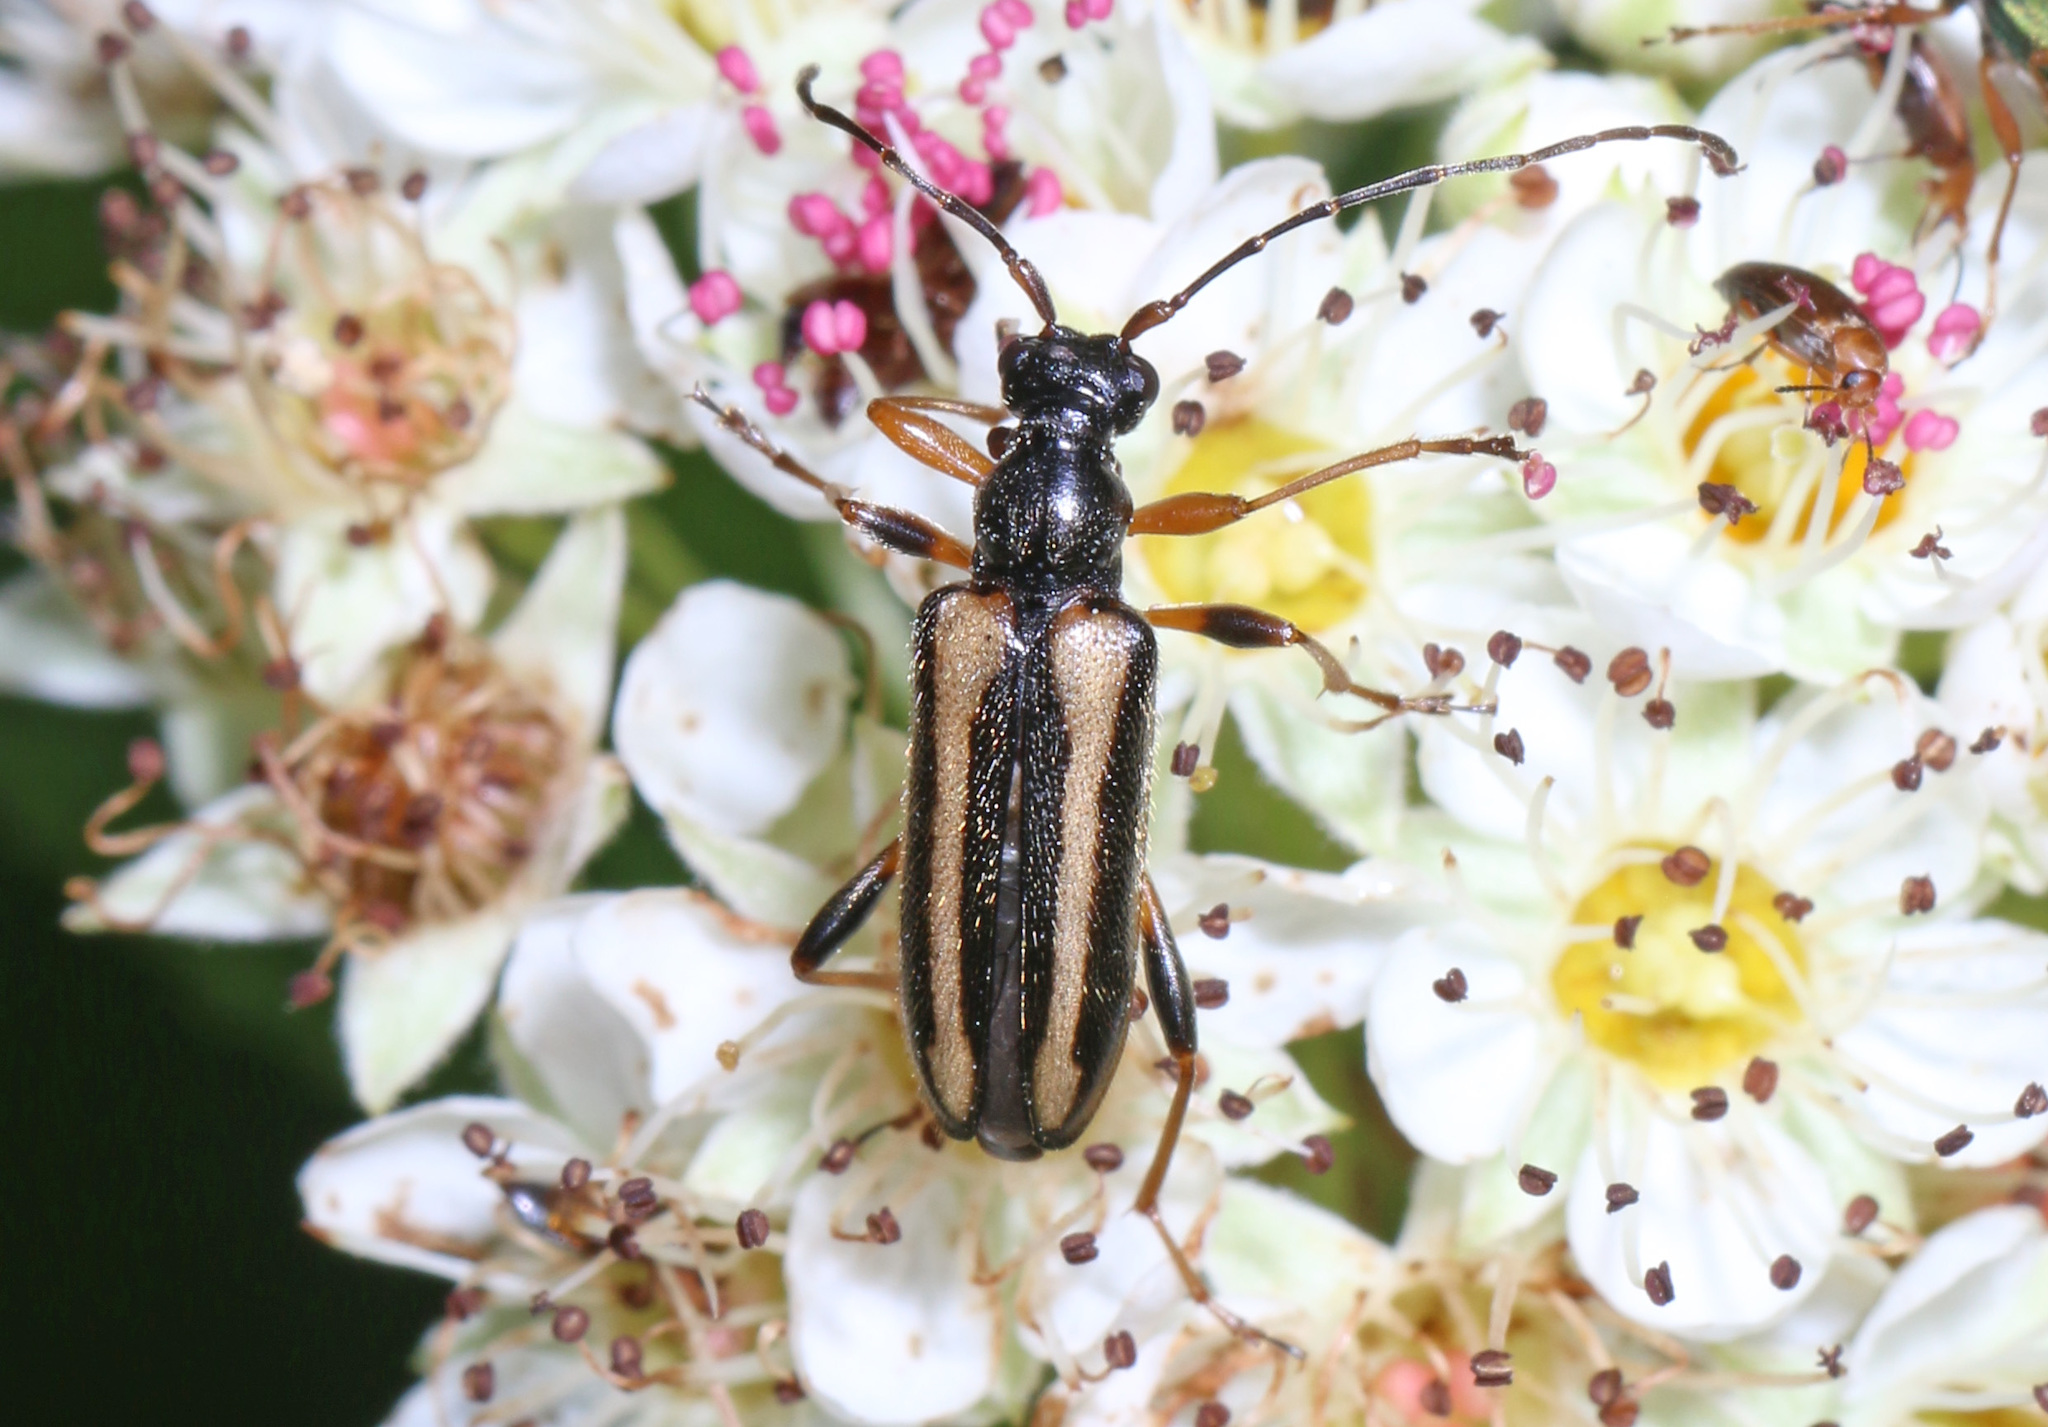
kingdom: Animalia
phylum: Arthropoda
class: Insecta
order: Coleoptera
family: Cerambycidae
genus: Pidonia
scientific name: Pidonia ruficollis
